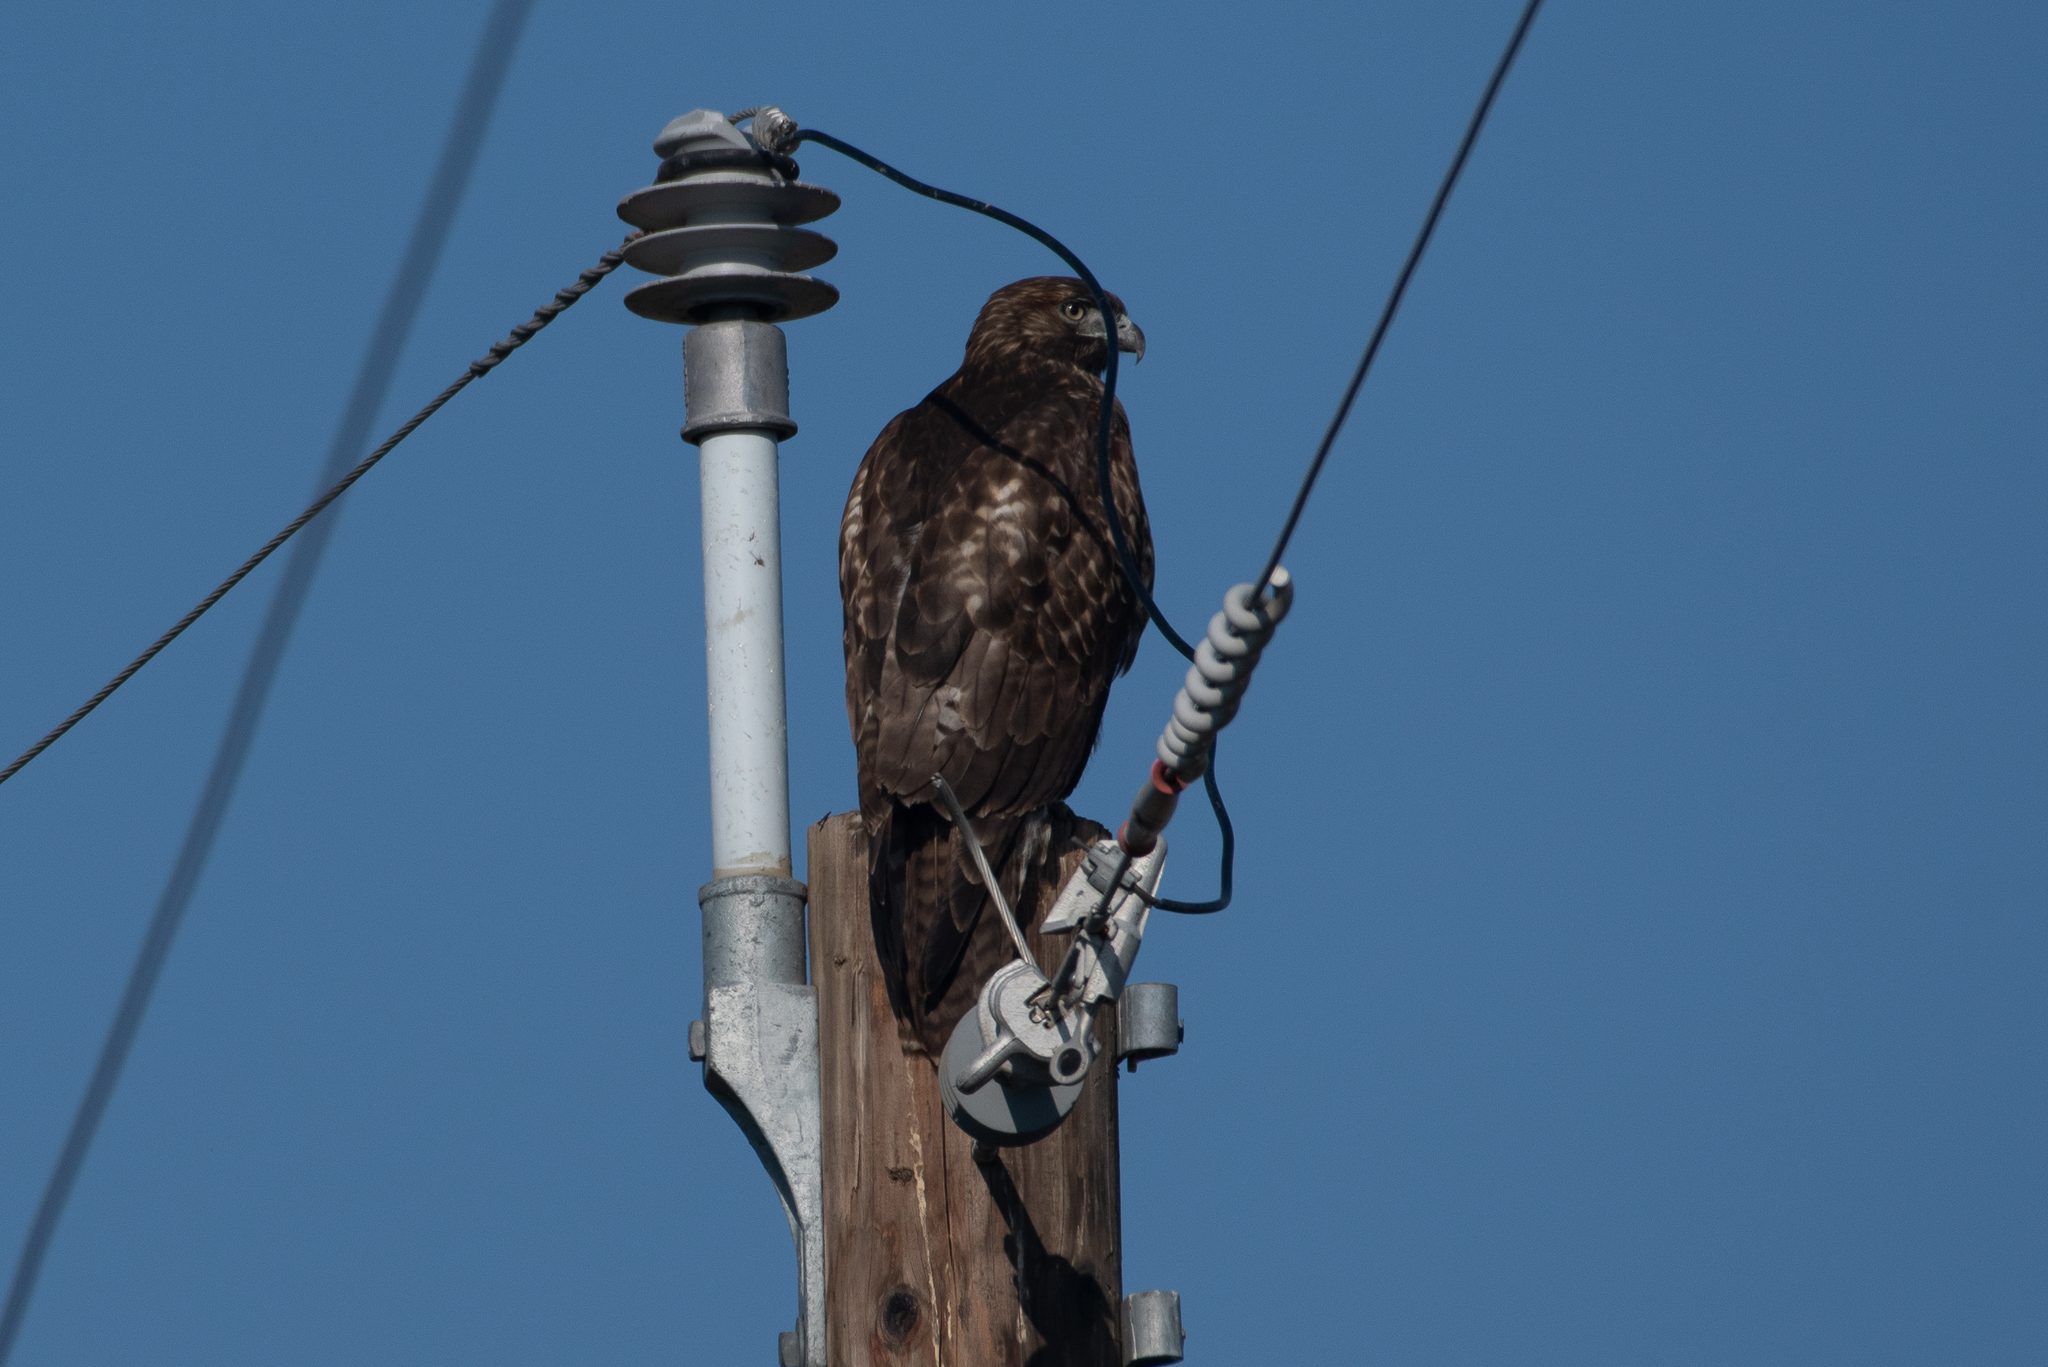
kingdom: Animalia
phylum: Chordata
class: Aves
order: Accipitriformes
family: Accipitridae
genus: Buteo
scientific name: Buteo jamaicensis
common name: Red-tailed hawk
